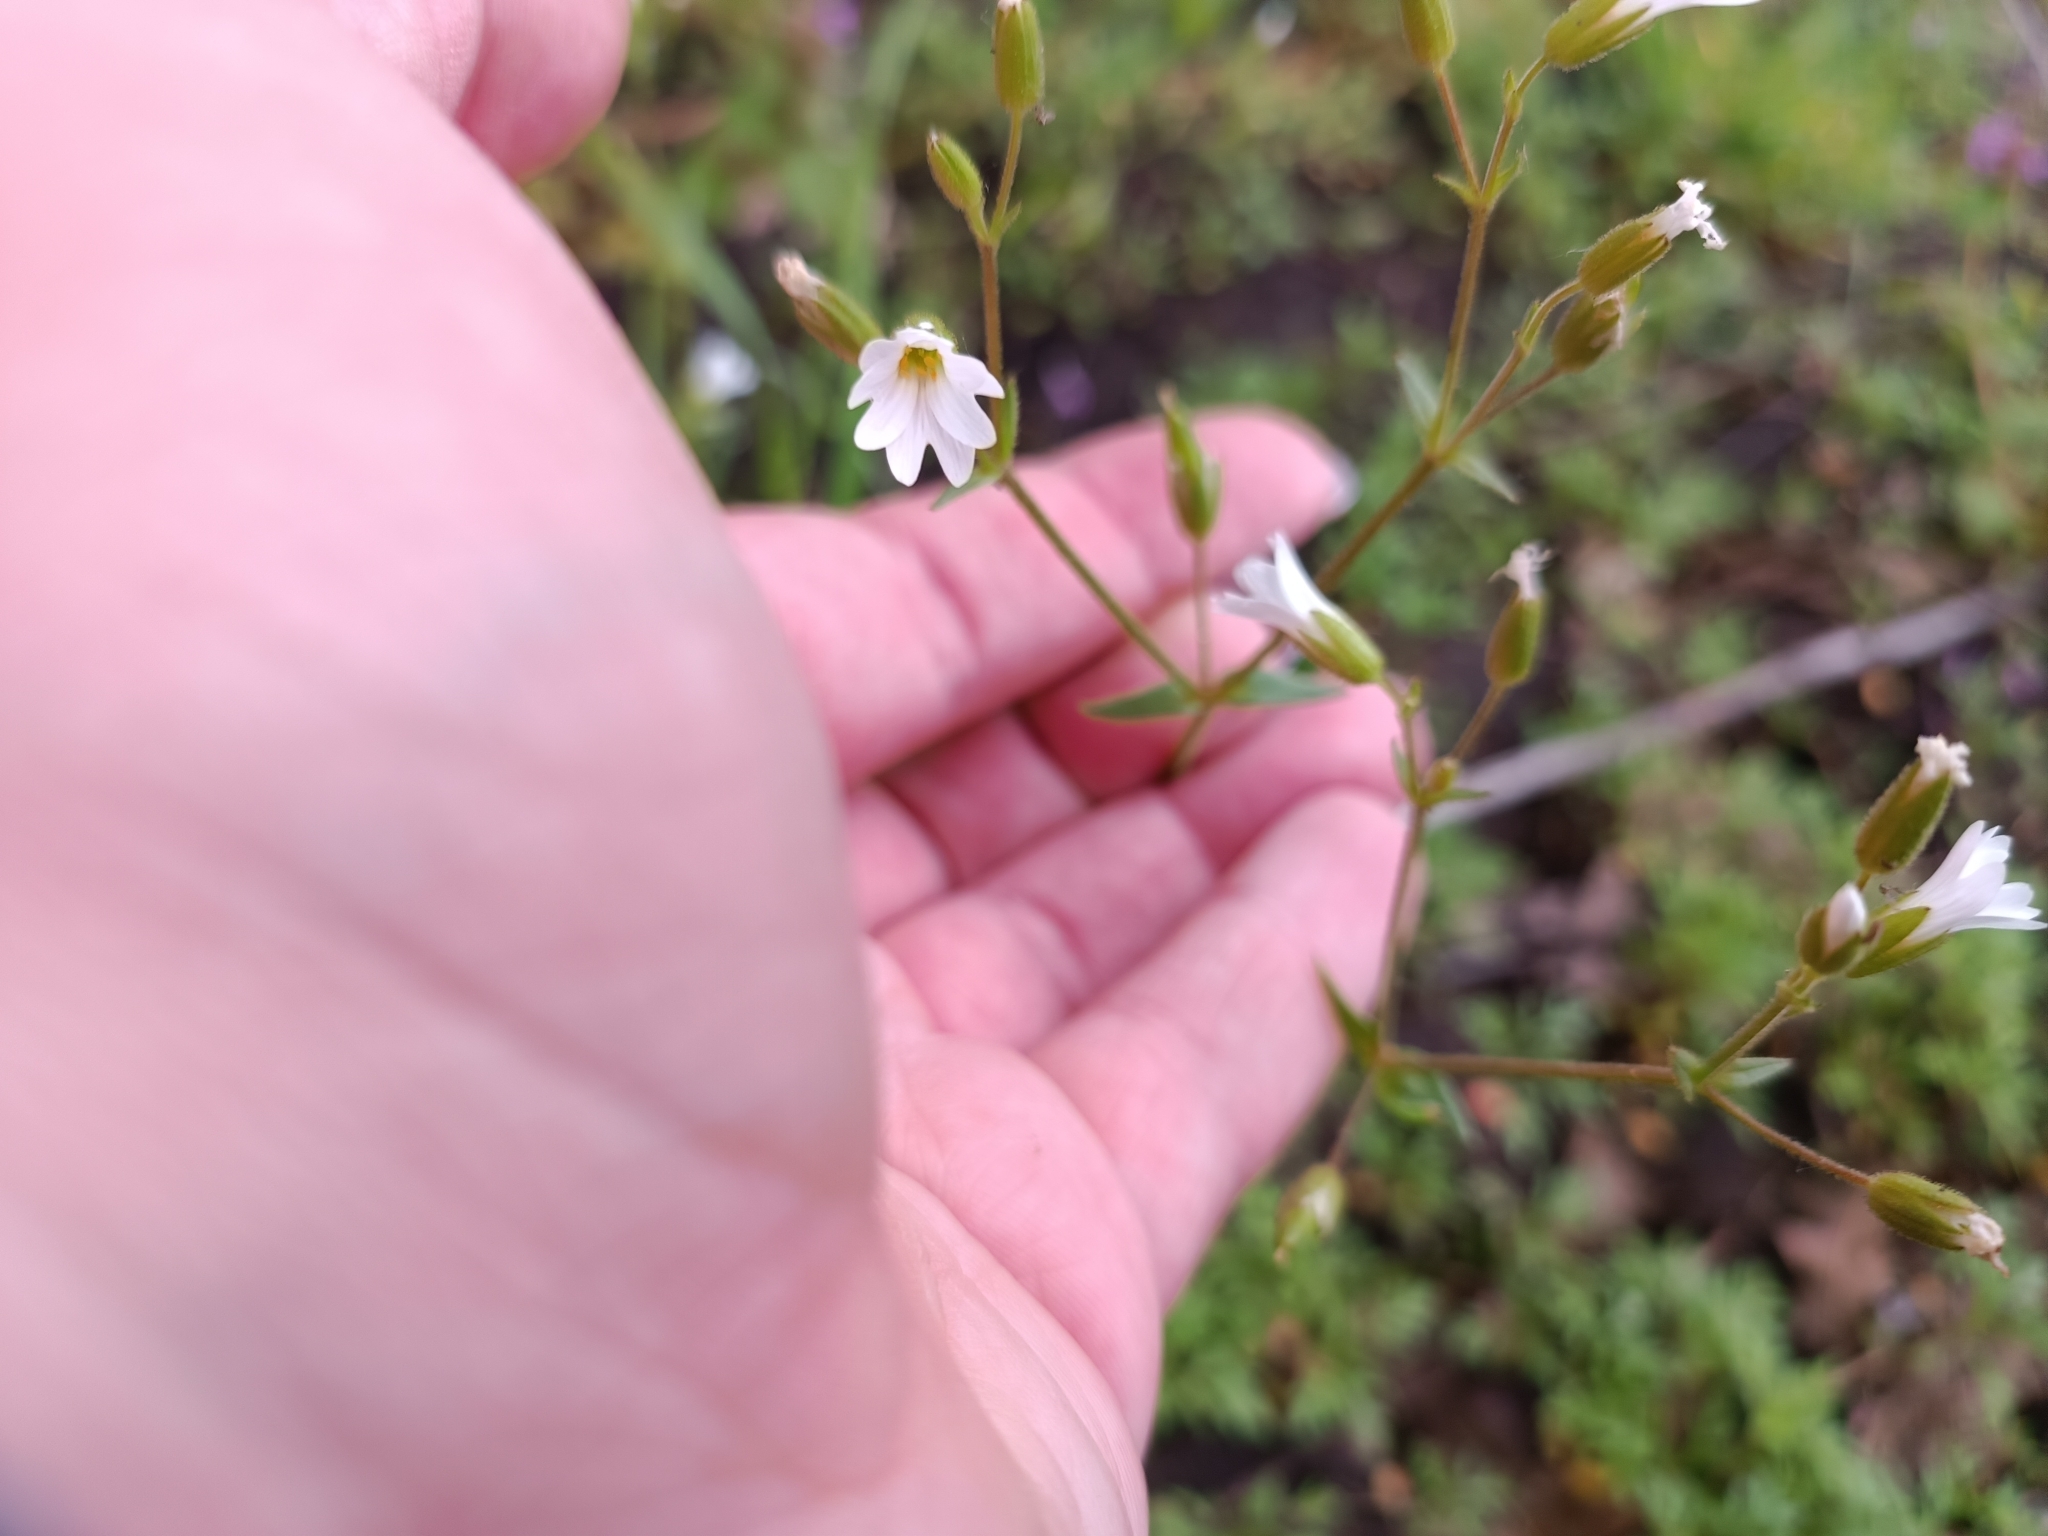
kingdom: Plantae
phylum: Tracheophyta
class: Magnoliopsida
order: Caryophyllales
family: Caryophyllaceae
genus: Dichodon
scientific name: Dichodon viscidum
